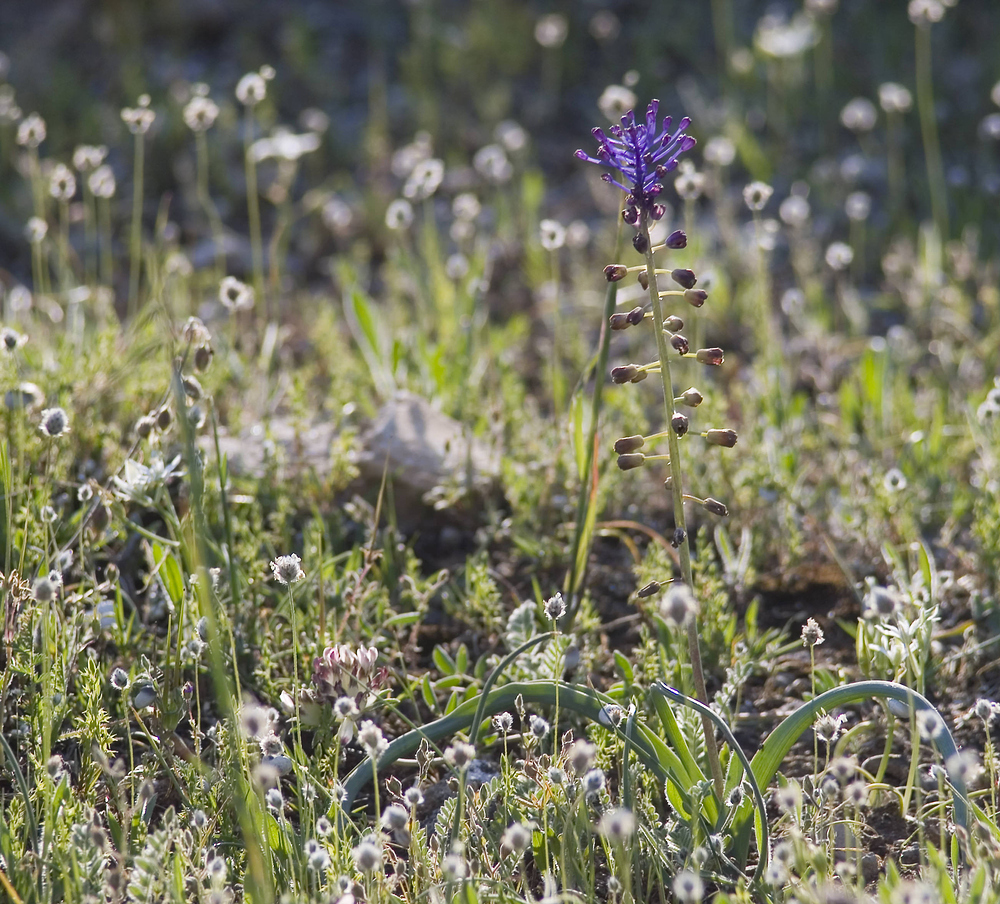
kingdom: Plantae
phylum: Tracheophyta
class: Liliopsida
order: Asparagales
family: Asparagaceae
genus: Muscari
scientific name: Muscari comosum
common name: Tassel hyacinth
